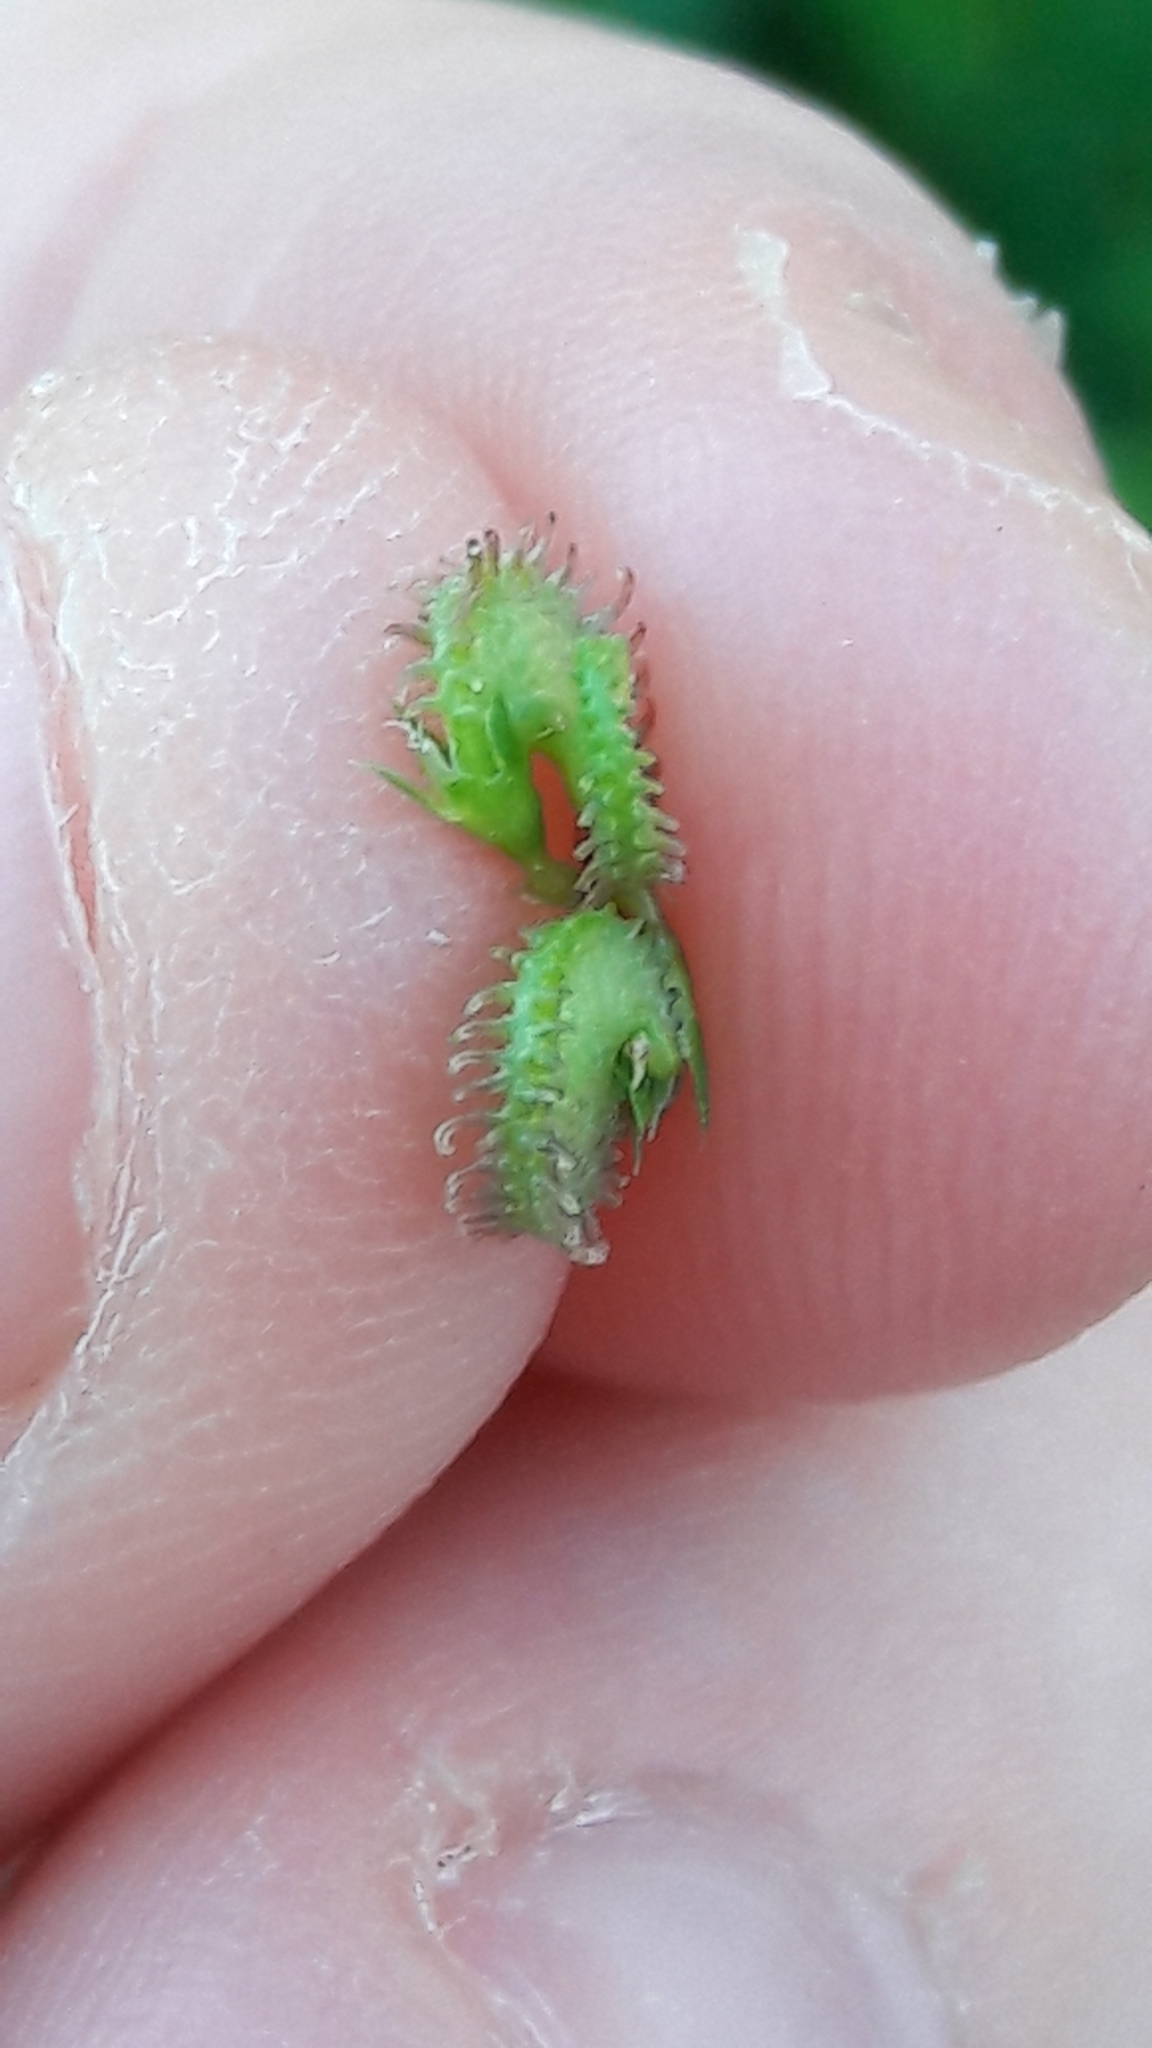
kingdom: Plantae
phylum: Tracheophyta
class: Magnoliopsida
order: Fabales
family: Fabaceae
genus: Medicago
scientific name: Medicago polymorpha
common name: Burclover
